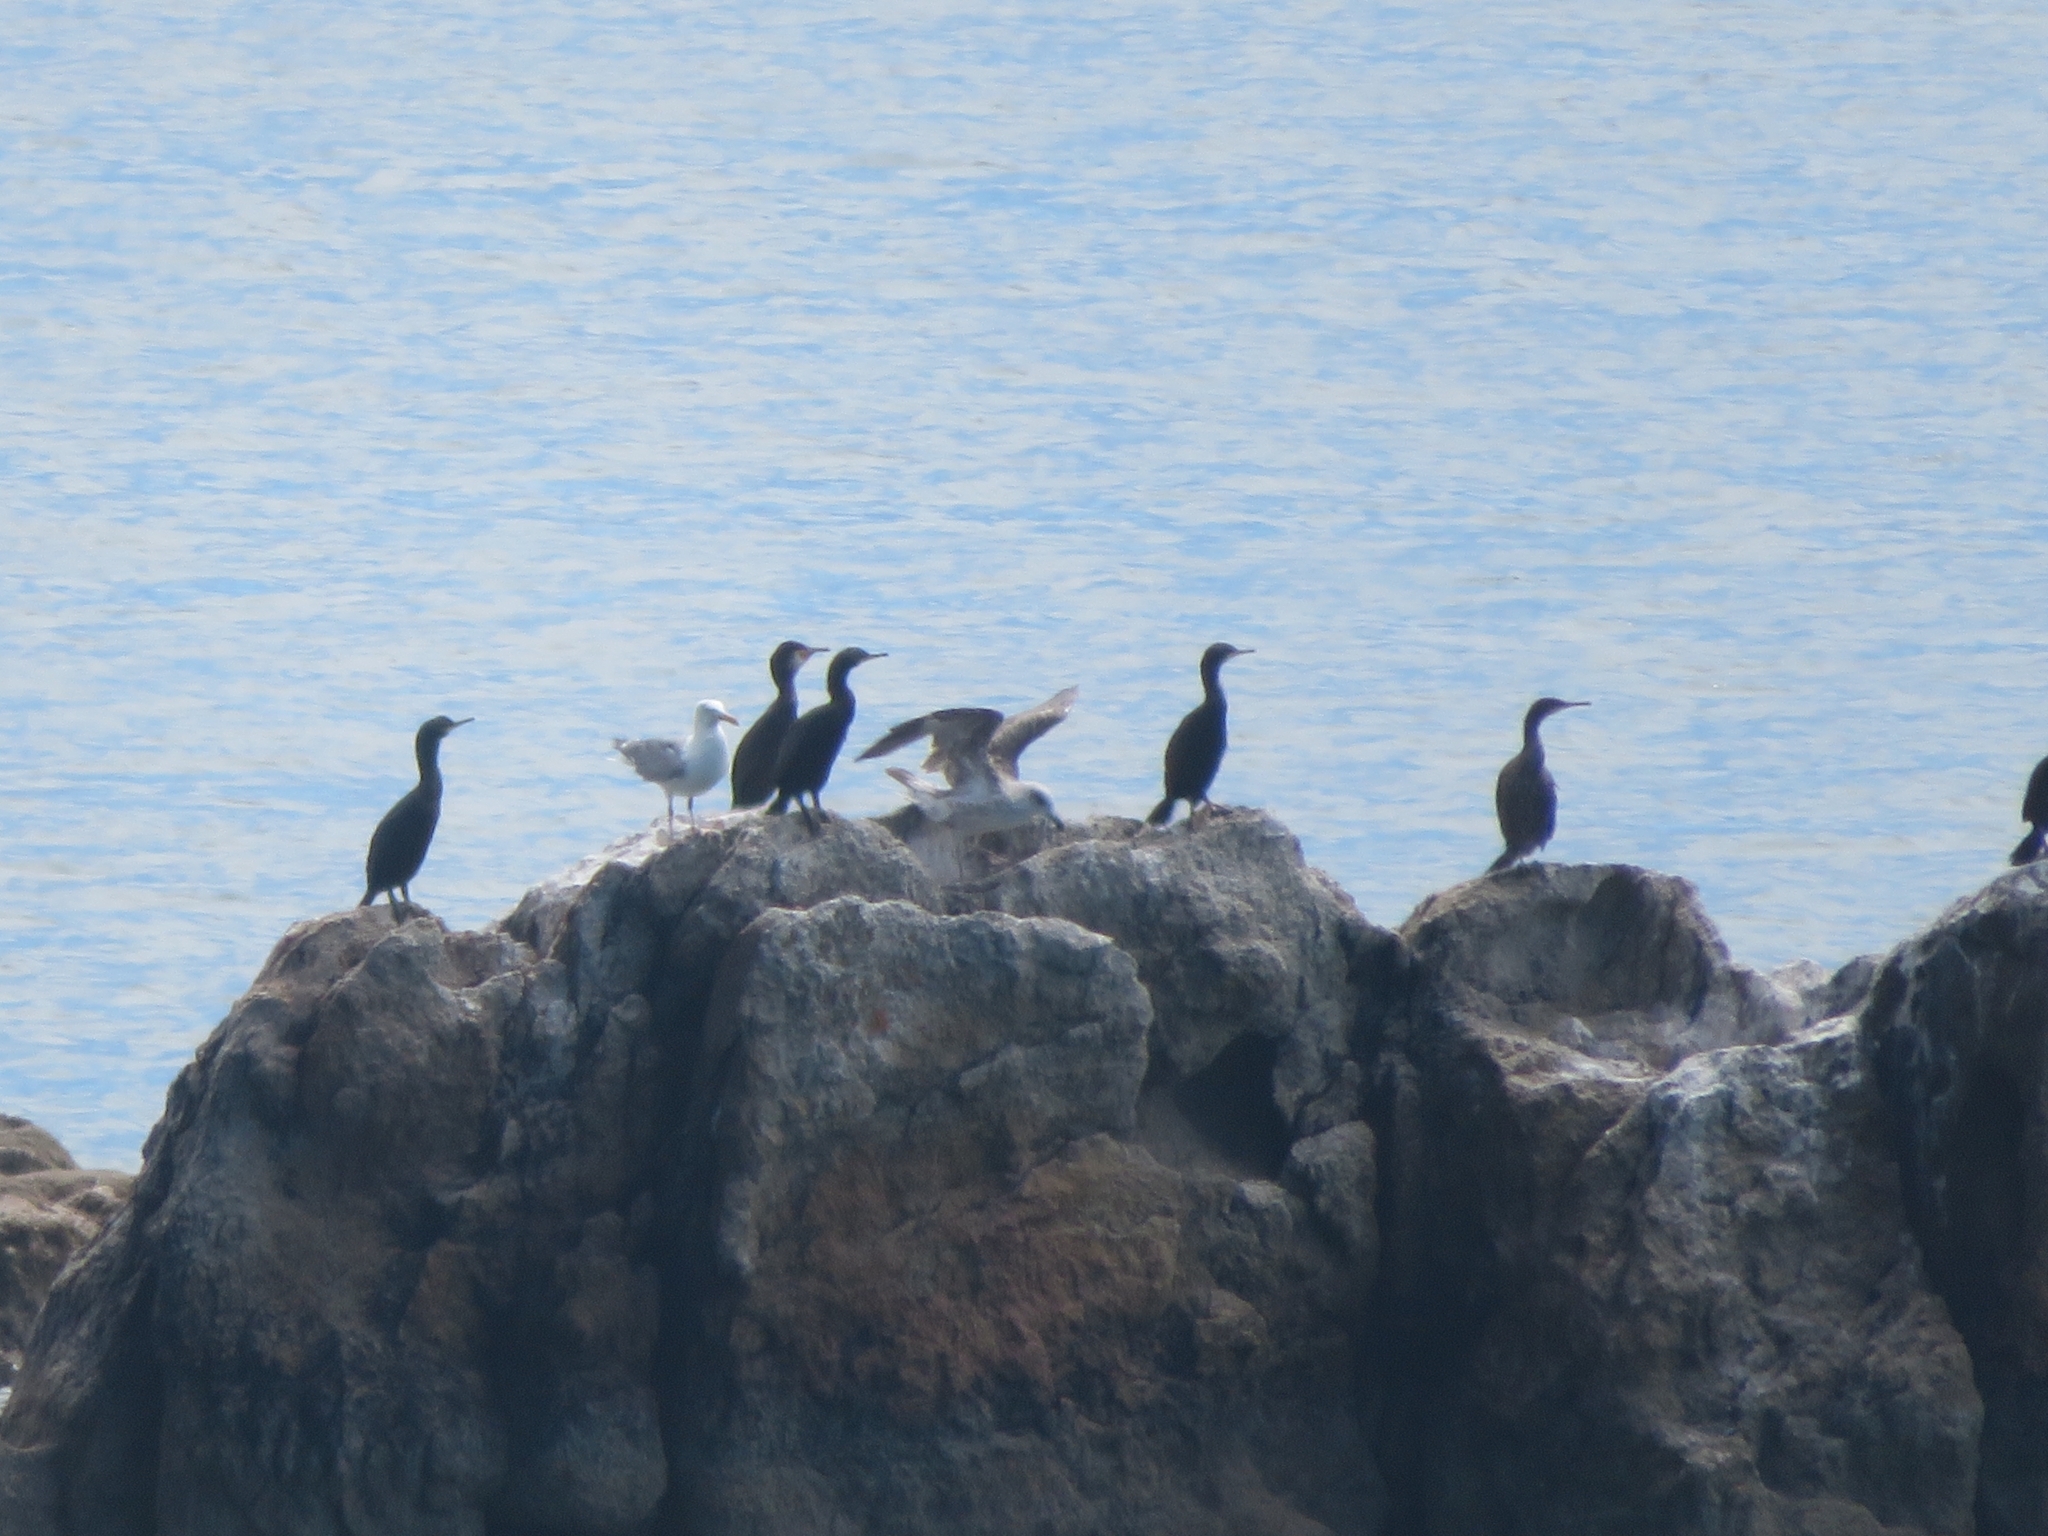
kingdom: Animalia
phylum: Chordata
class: Aves
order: Suliformes
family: Phalacrocoracidae
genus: Phalacrocorax
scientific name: Phalacrocorax aristotelis
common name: European shag
